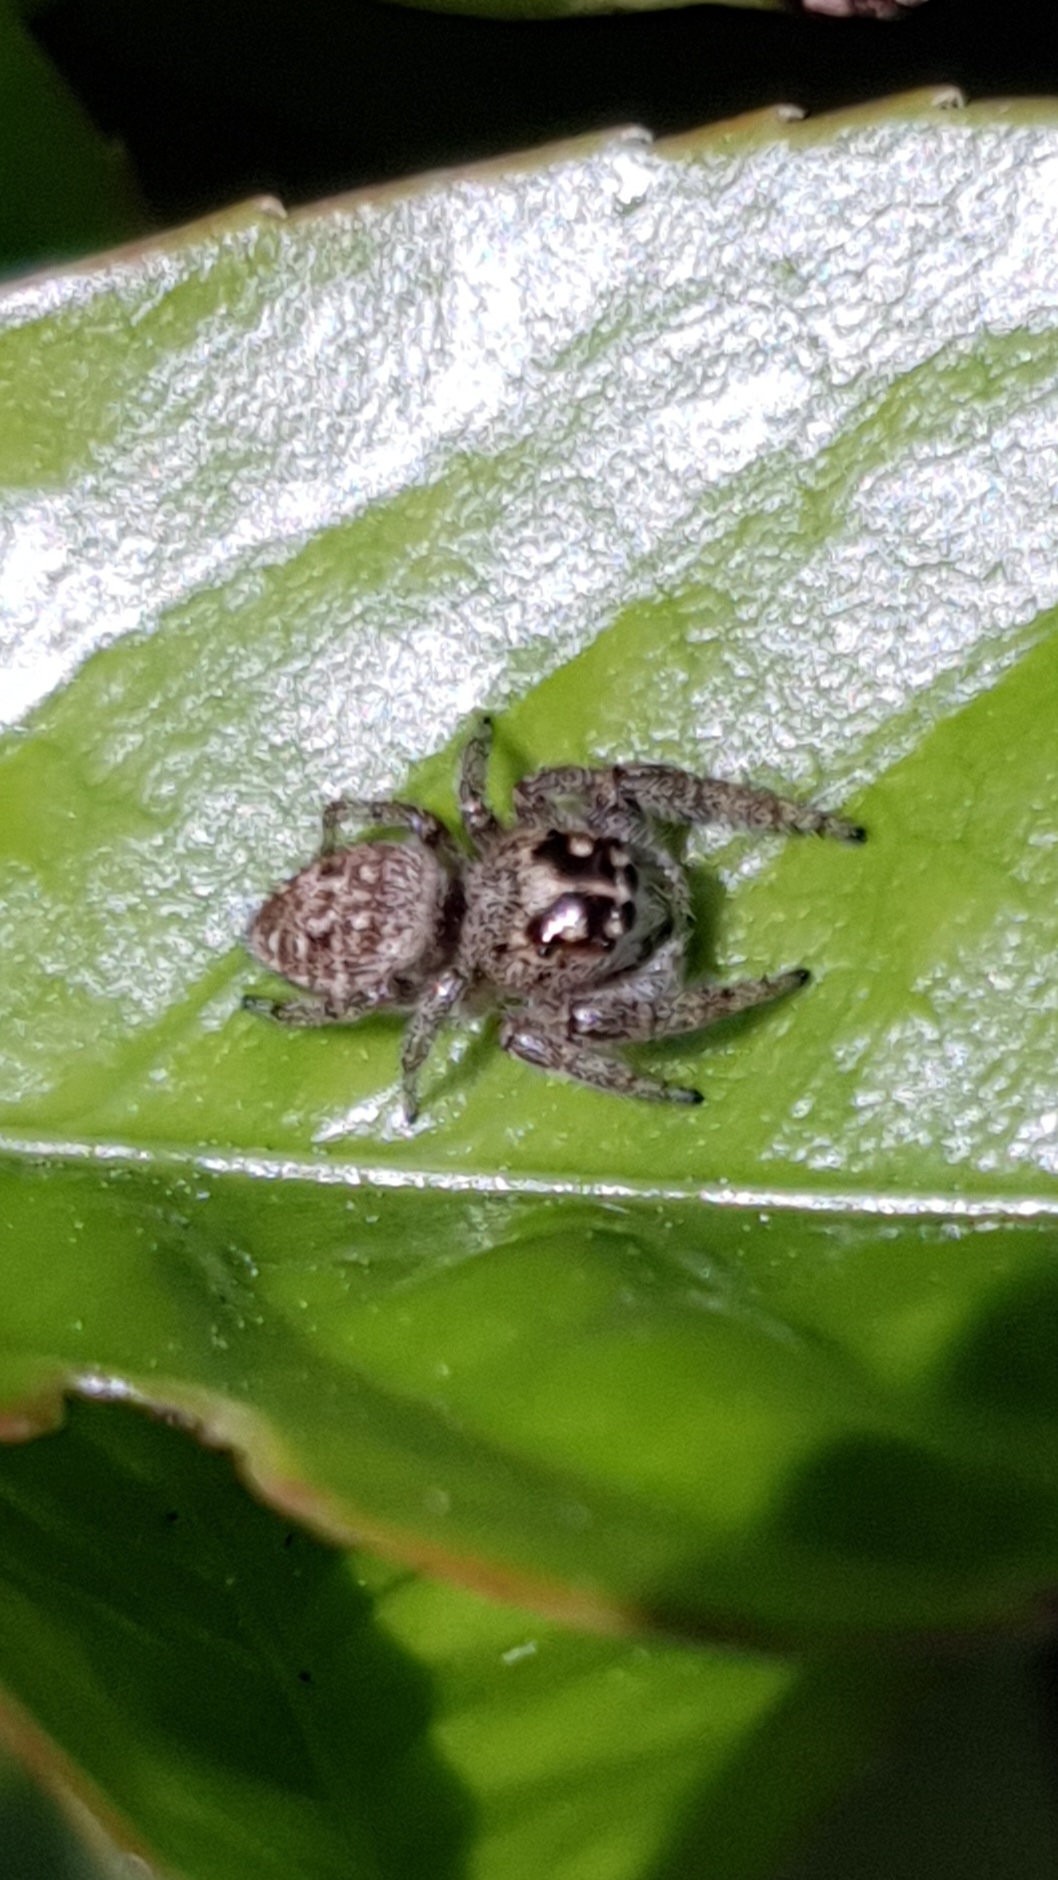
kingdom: Animalia
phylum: Arthropoda
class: Arachnida
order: Araneae
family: Salticidae
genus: Macaroeris
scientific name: Macaroeris nidicolens
